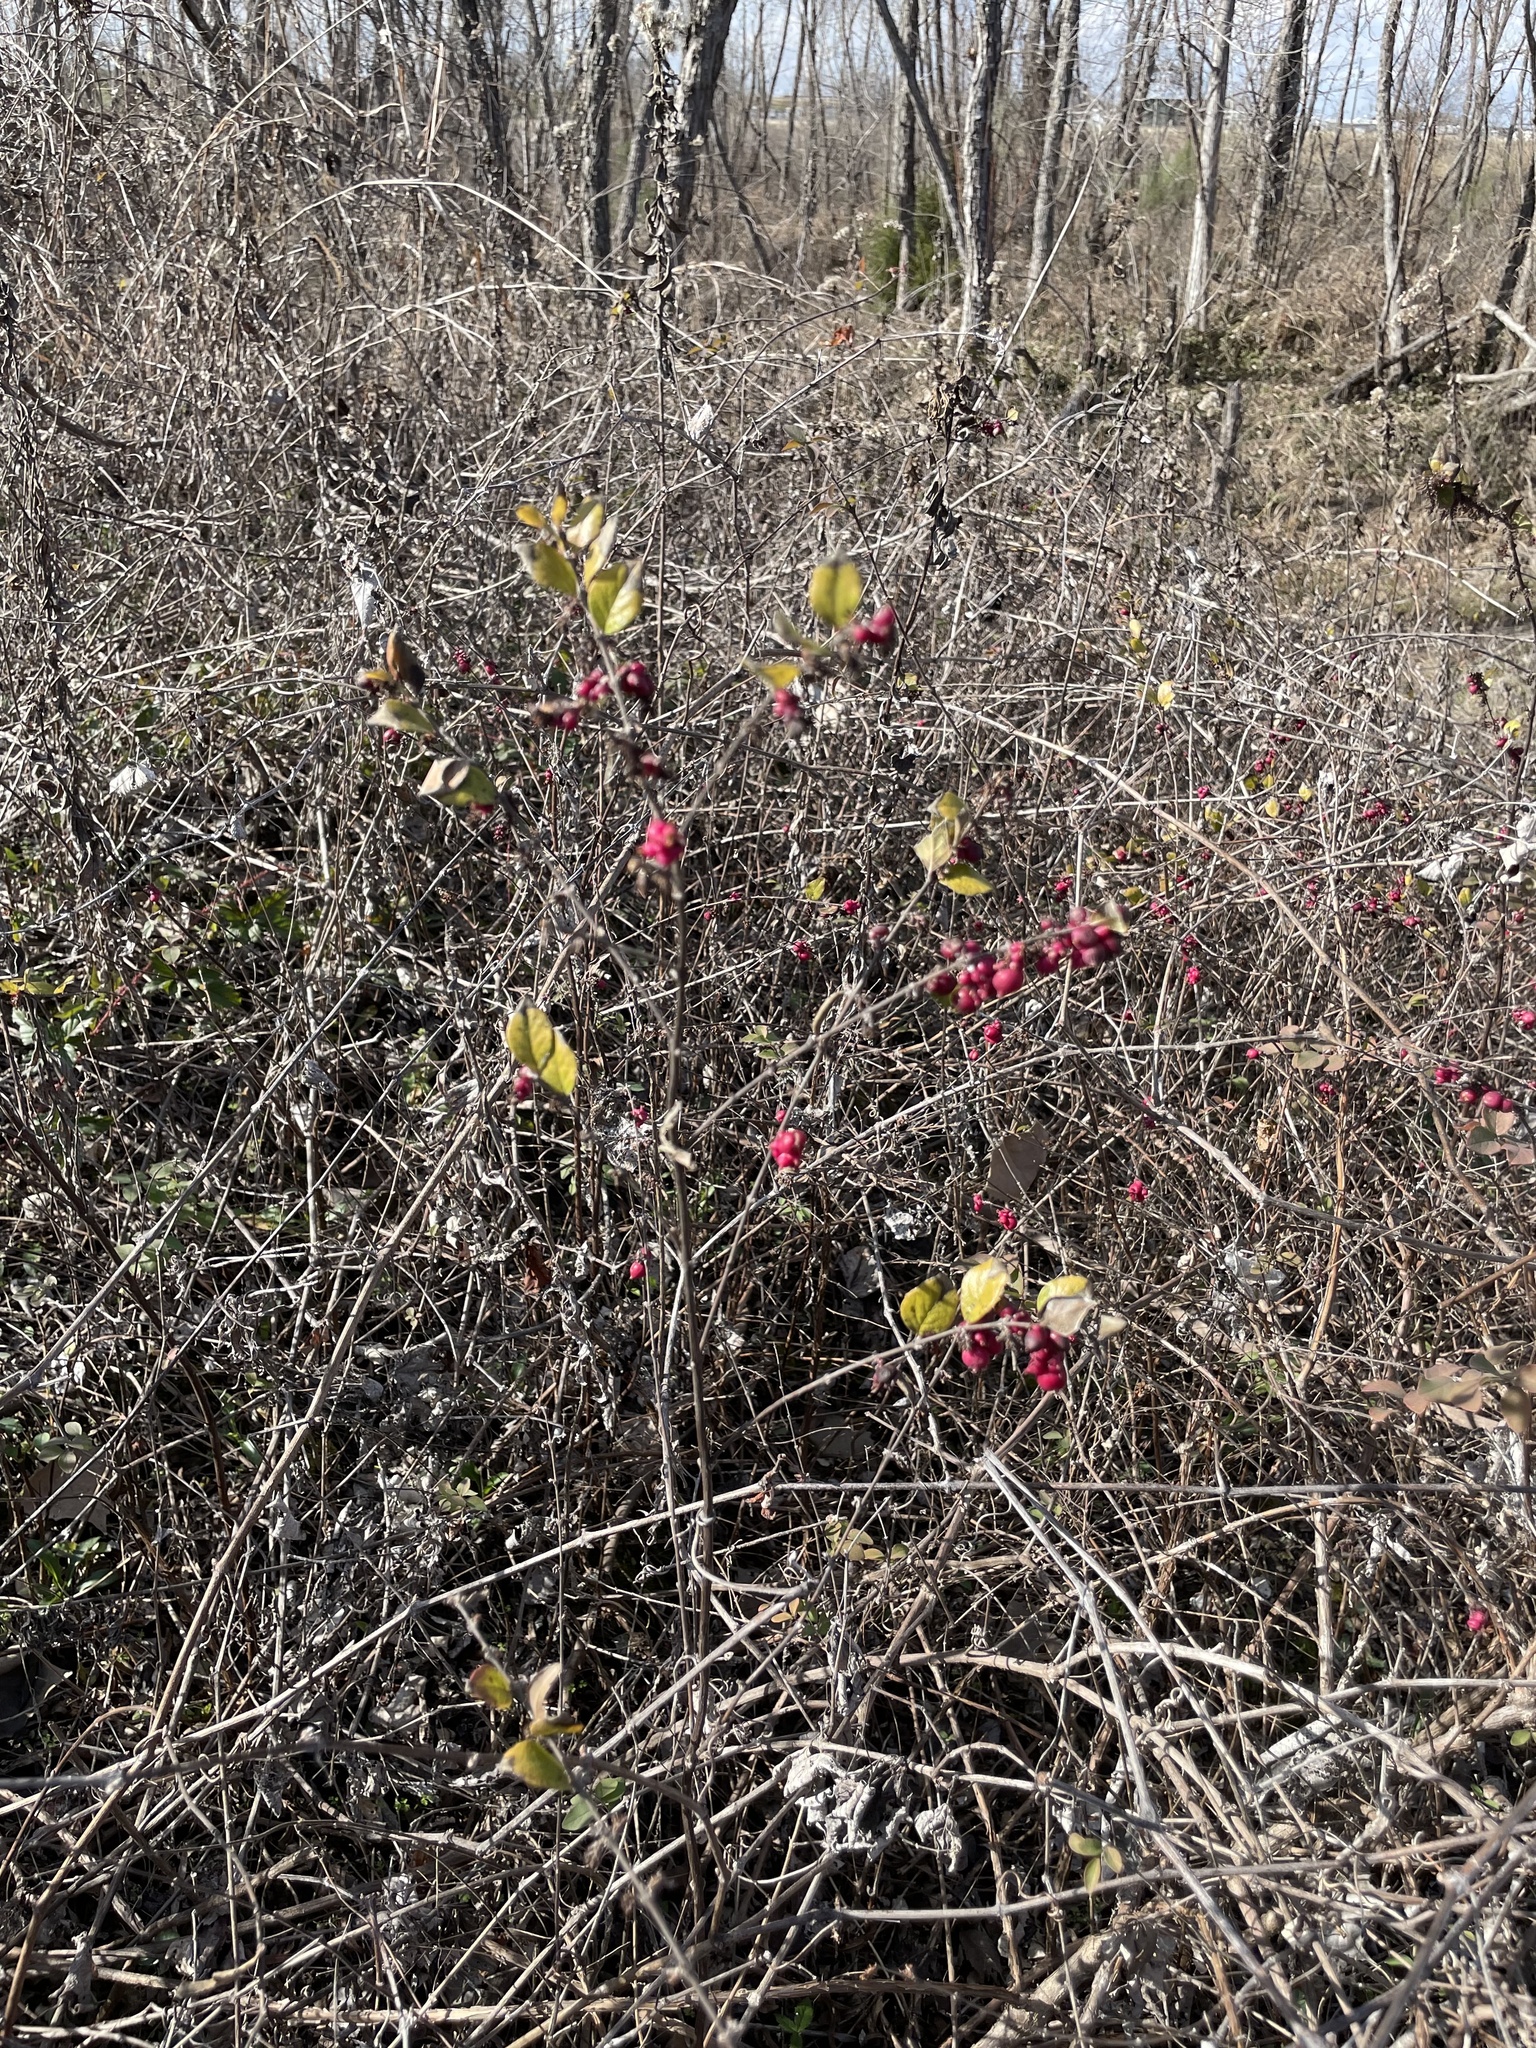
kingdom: Plantae
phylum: Tracheophyta
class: Magnoliopsida
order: Dipsacales
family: Caprifoliaceae
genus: Symphoricarpos
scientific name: Symphoricarpos orbiculatus
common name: Coralberry
